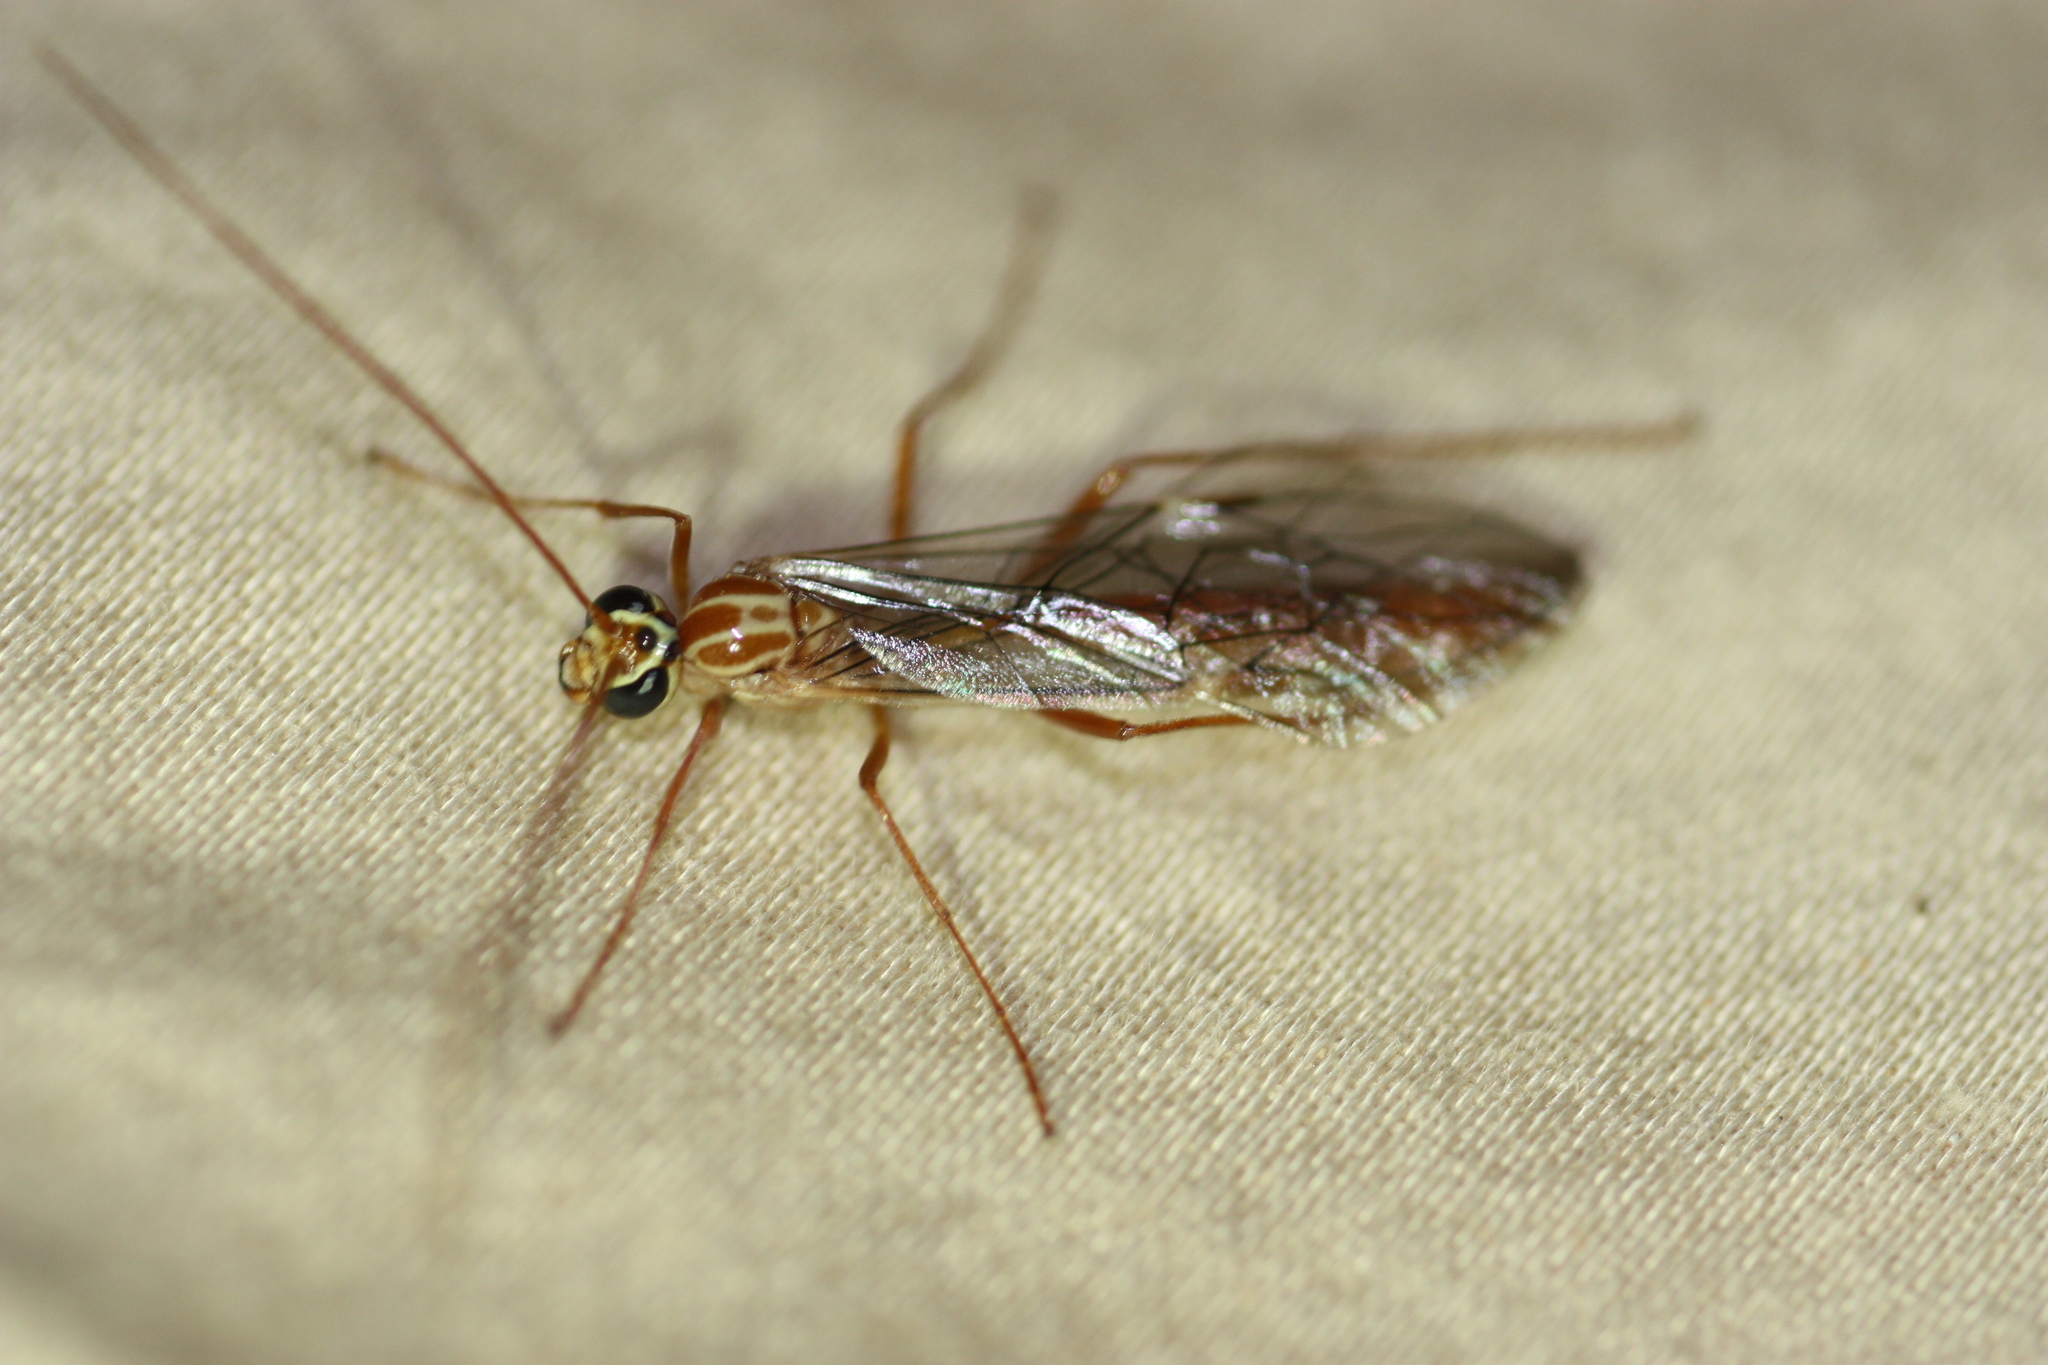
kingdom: Animalia
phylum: Arthropoda
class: Insecta
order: Hymenoptera
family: Ichneumonidae
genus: Ophion
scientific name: Ophion
